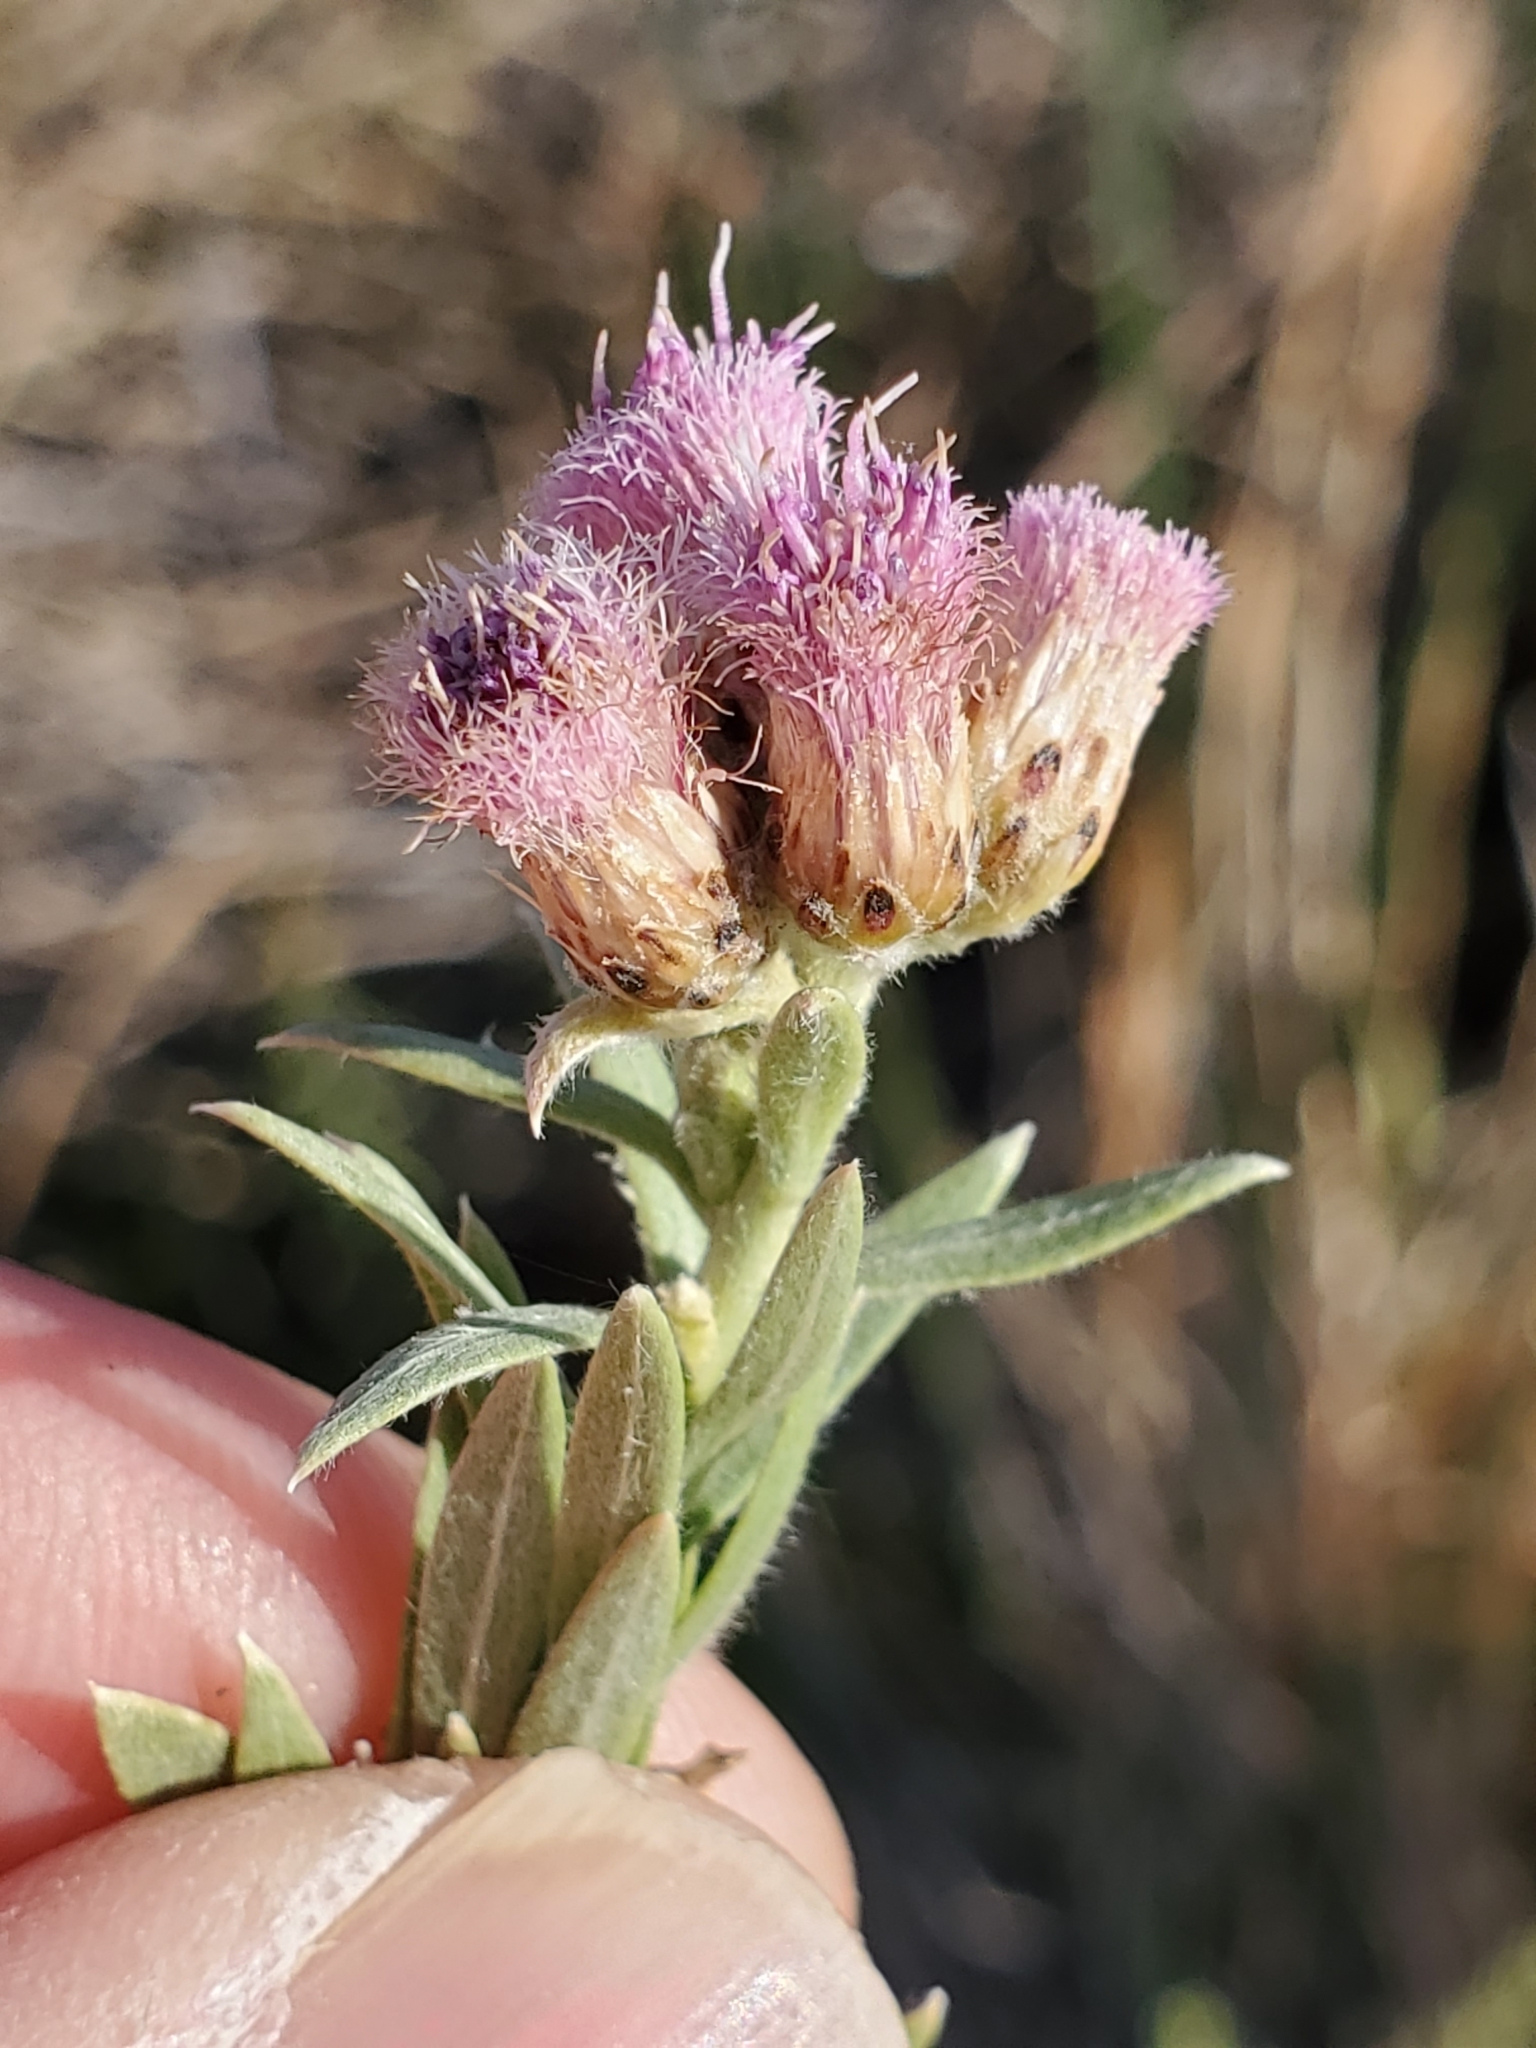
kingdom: Plantae
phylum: Tracheophyta
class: Magnoliopsida
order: Asterales
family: Asteraceae
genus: Pluchea
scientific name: Pluchea sericea
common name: Arrow-weed
